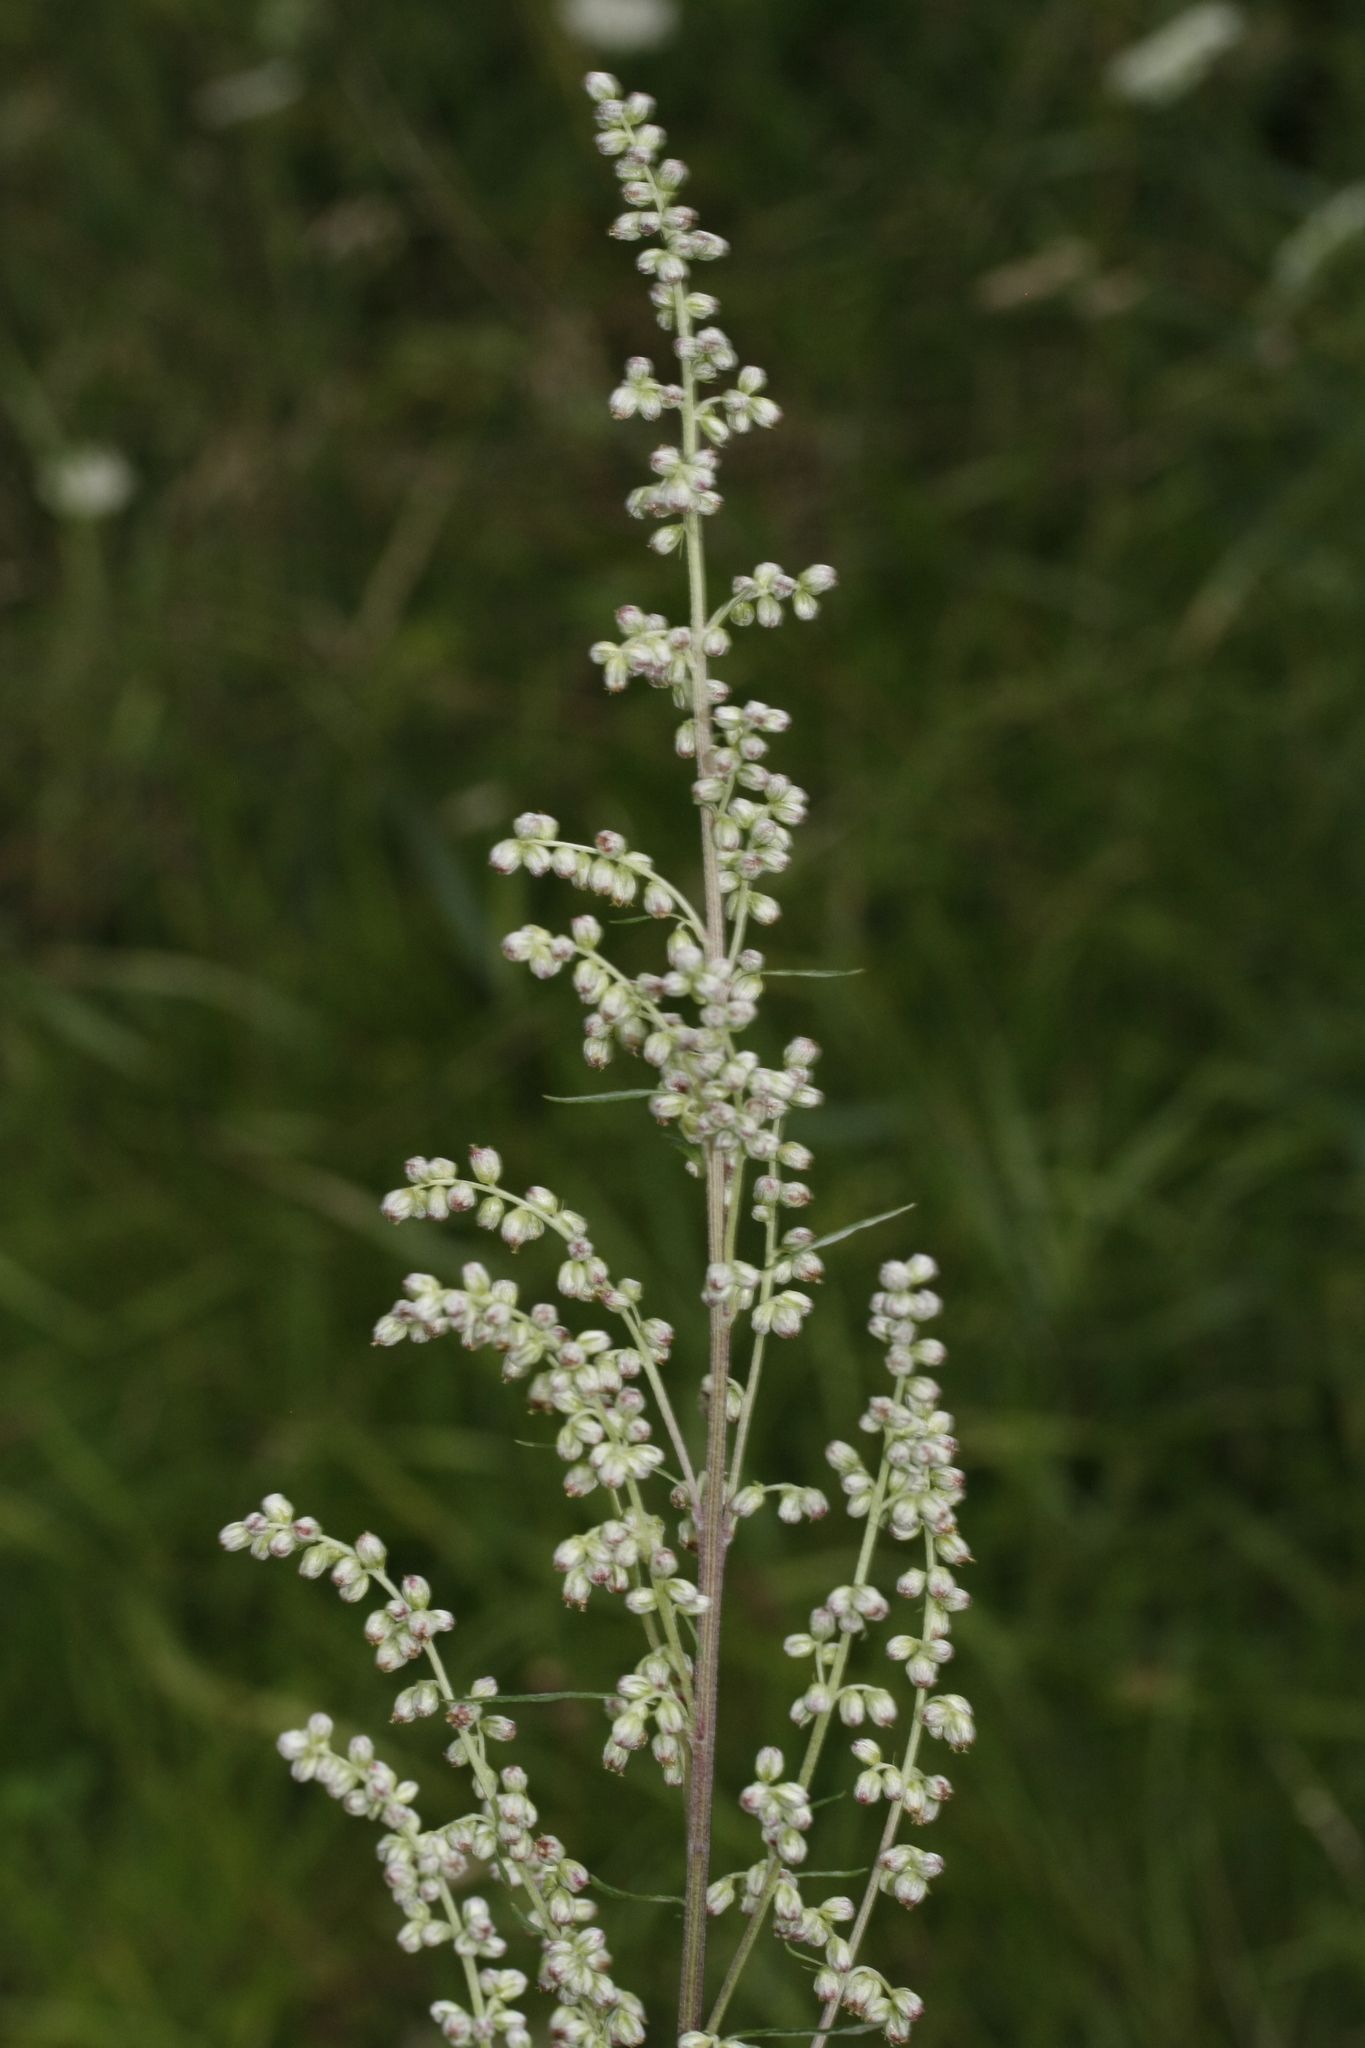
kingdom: Plantae
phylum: Tracheophyta
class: Magnoliopsida
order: Asterales
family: Asteraceae
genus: Artemisia
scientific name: Artemisia vulgaris
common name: Mugwort
